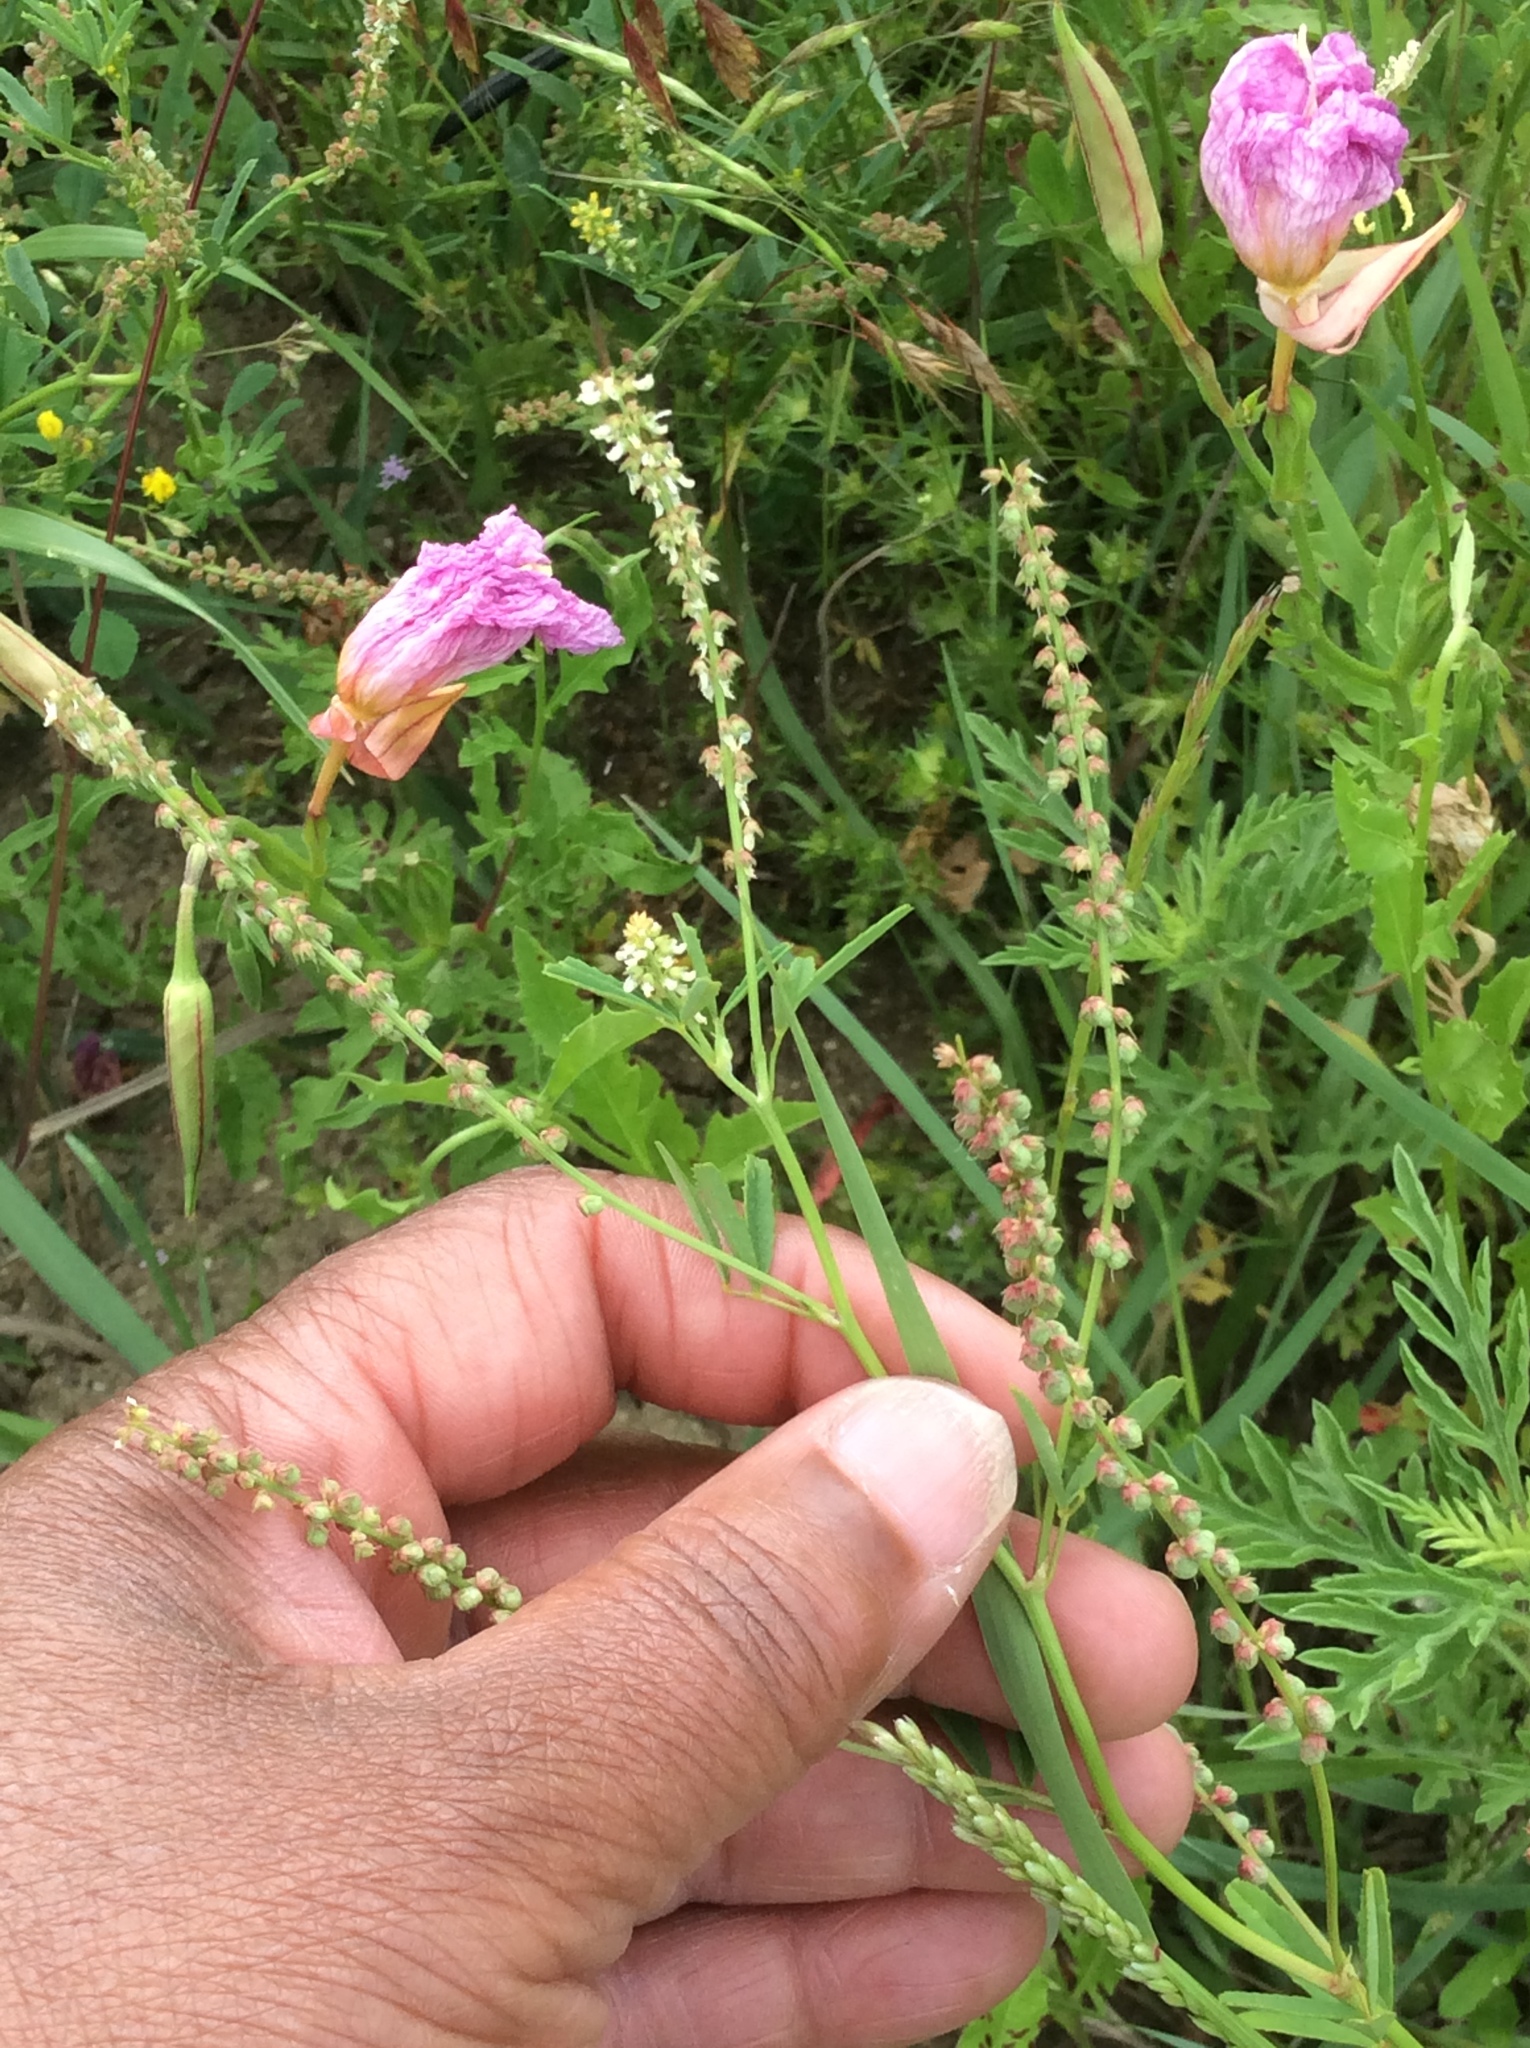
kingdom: Plantae
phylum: Tracheophyta
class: Magnoliopsida
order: Fabales
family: Fabaceae
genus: Melilotus
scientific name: Melilotus albus
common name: White melilot
